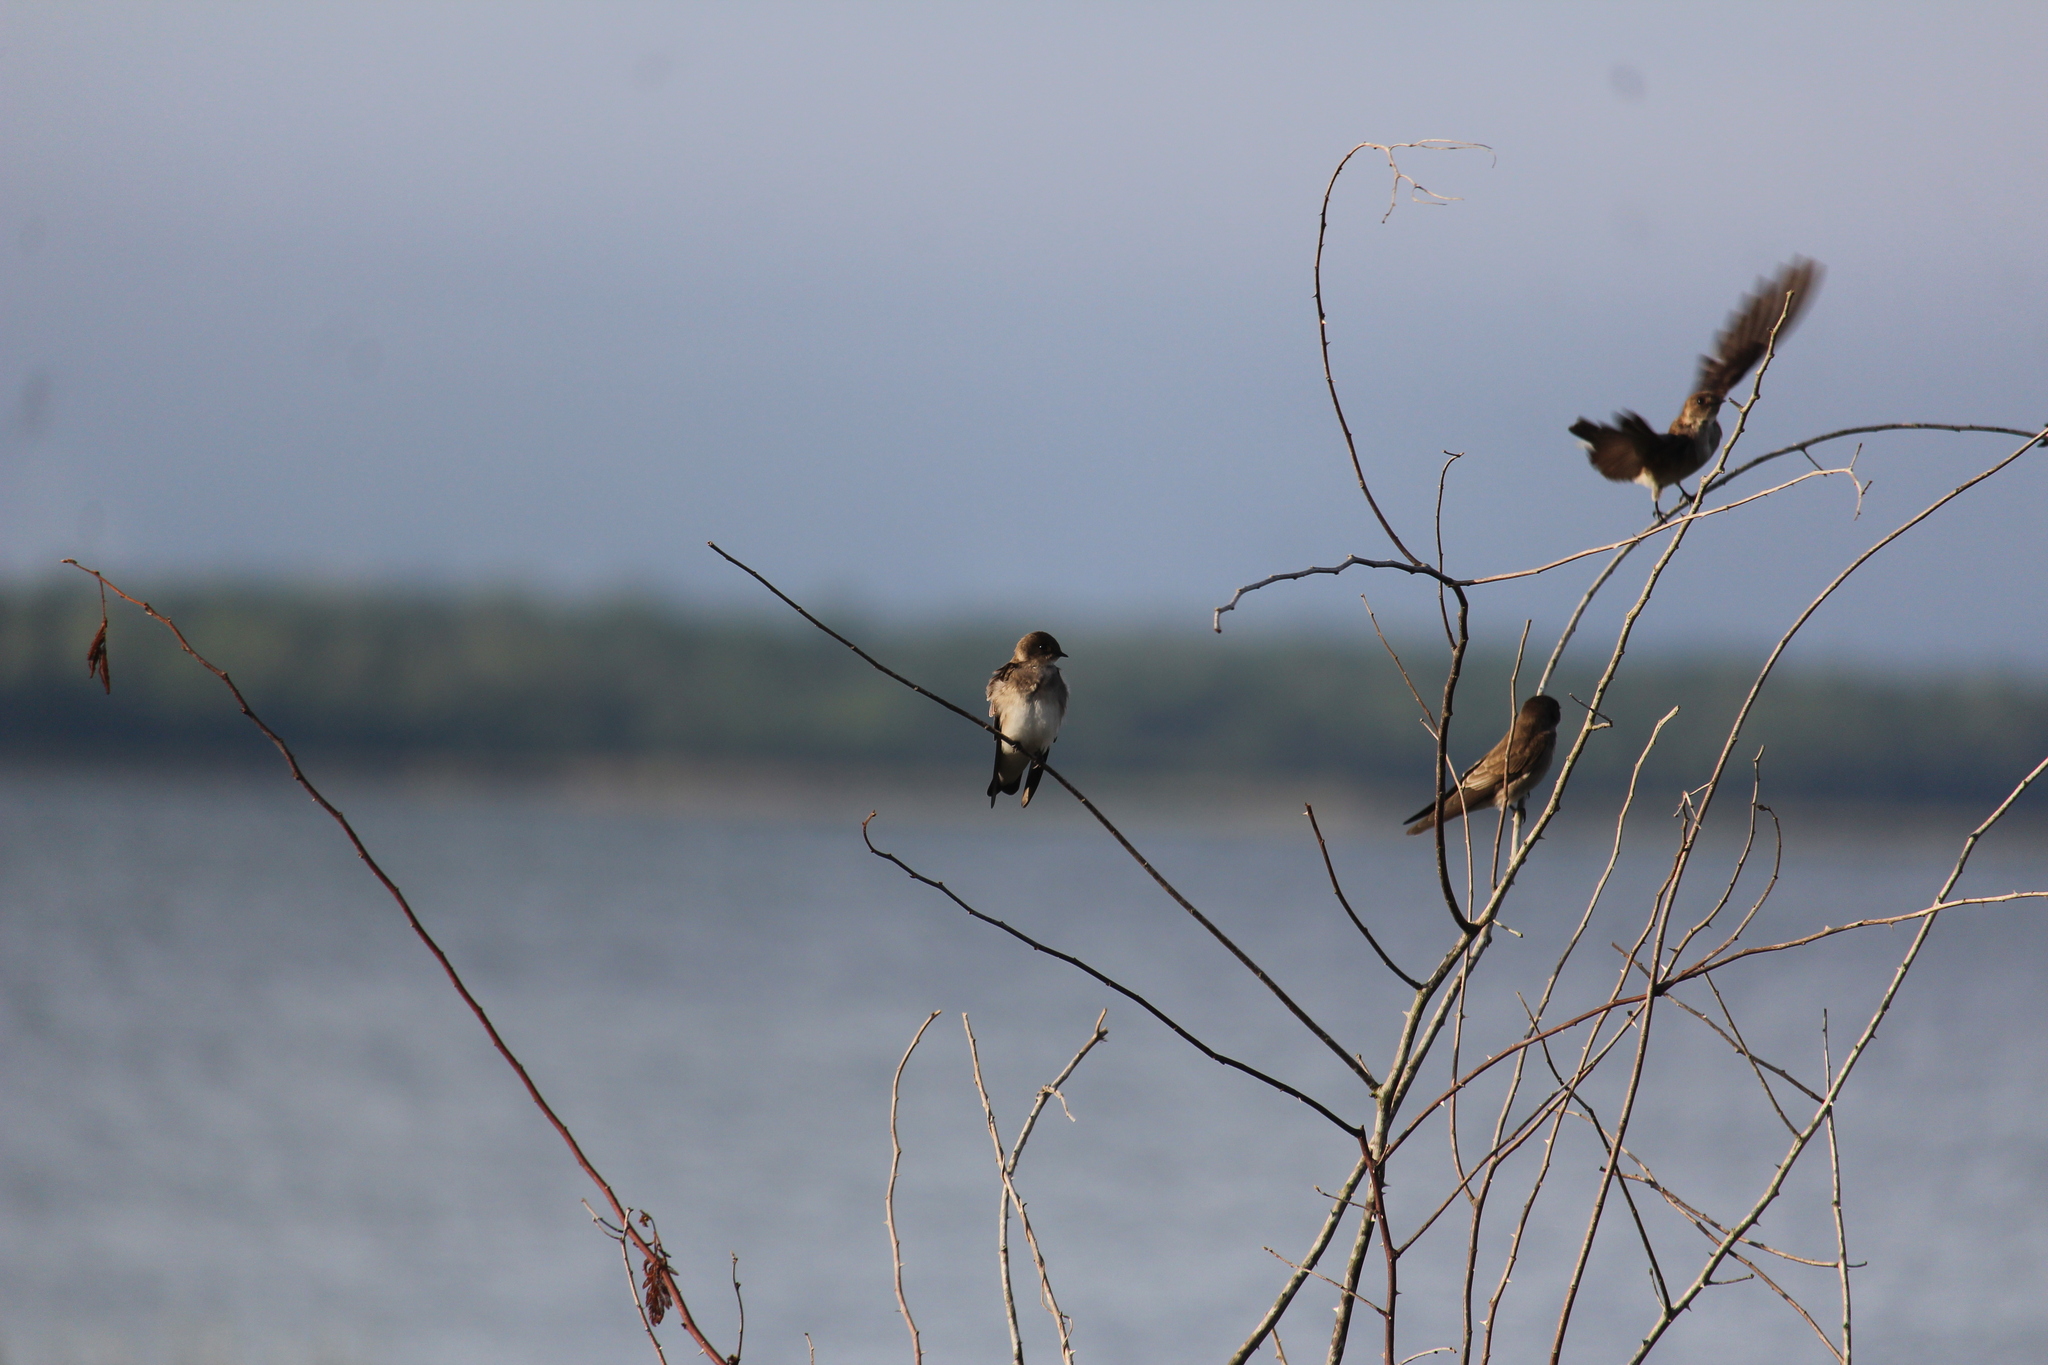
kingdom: Animalia
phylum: Chordata
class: Aves
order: Passeriformes
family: Hirundinidae
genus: Stelgidopteryx
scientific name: Stelgidopteryx serripennis
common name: Northern rough-winged swallow
